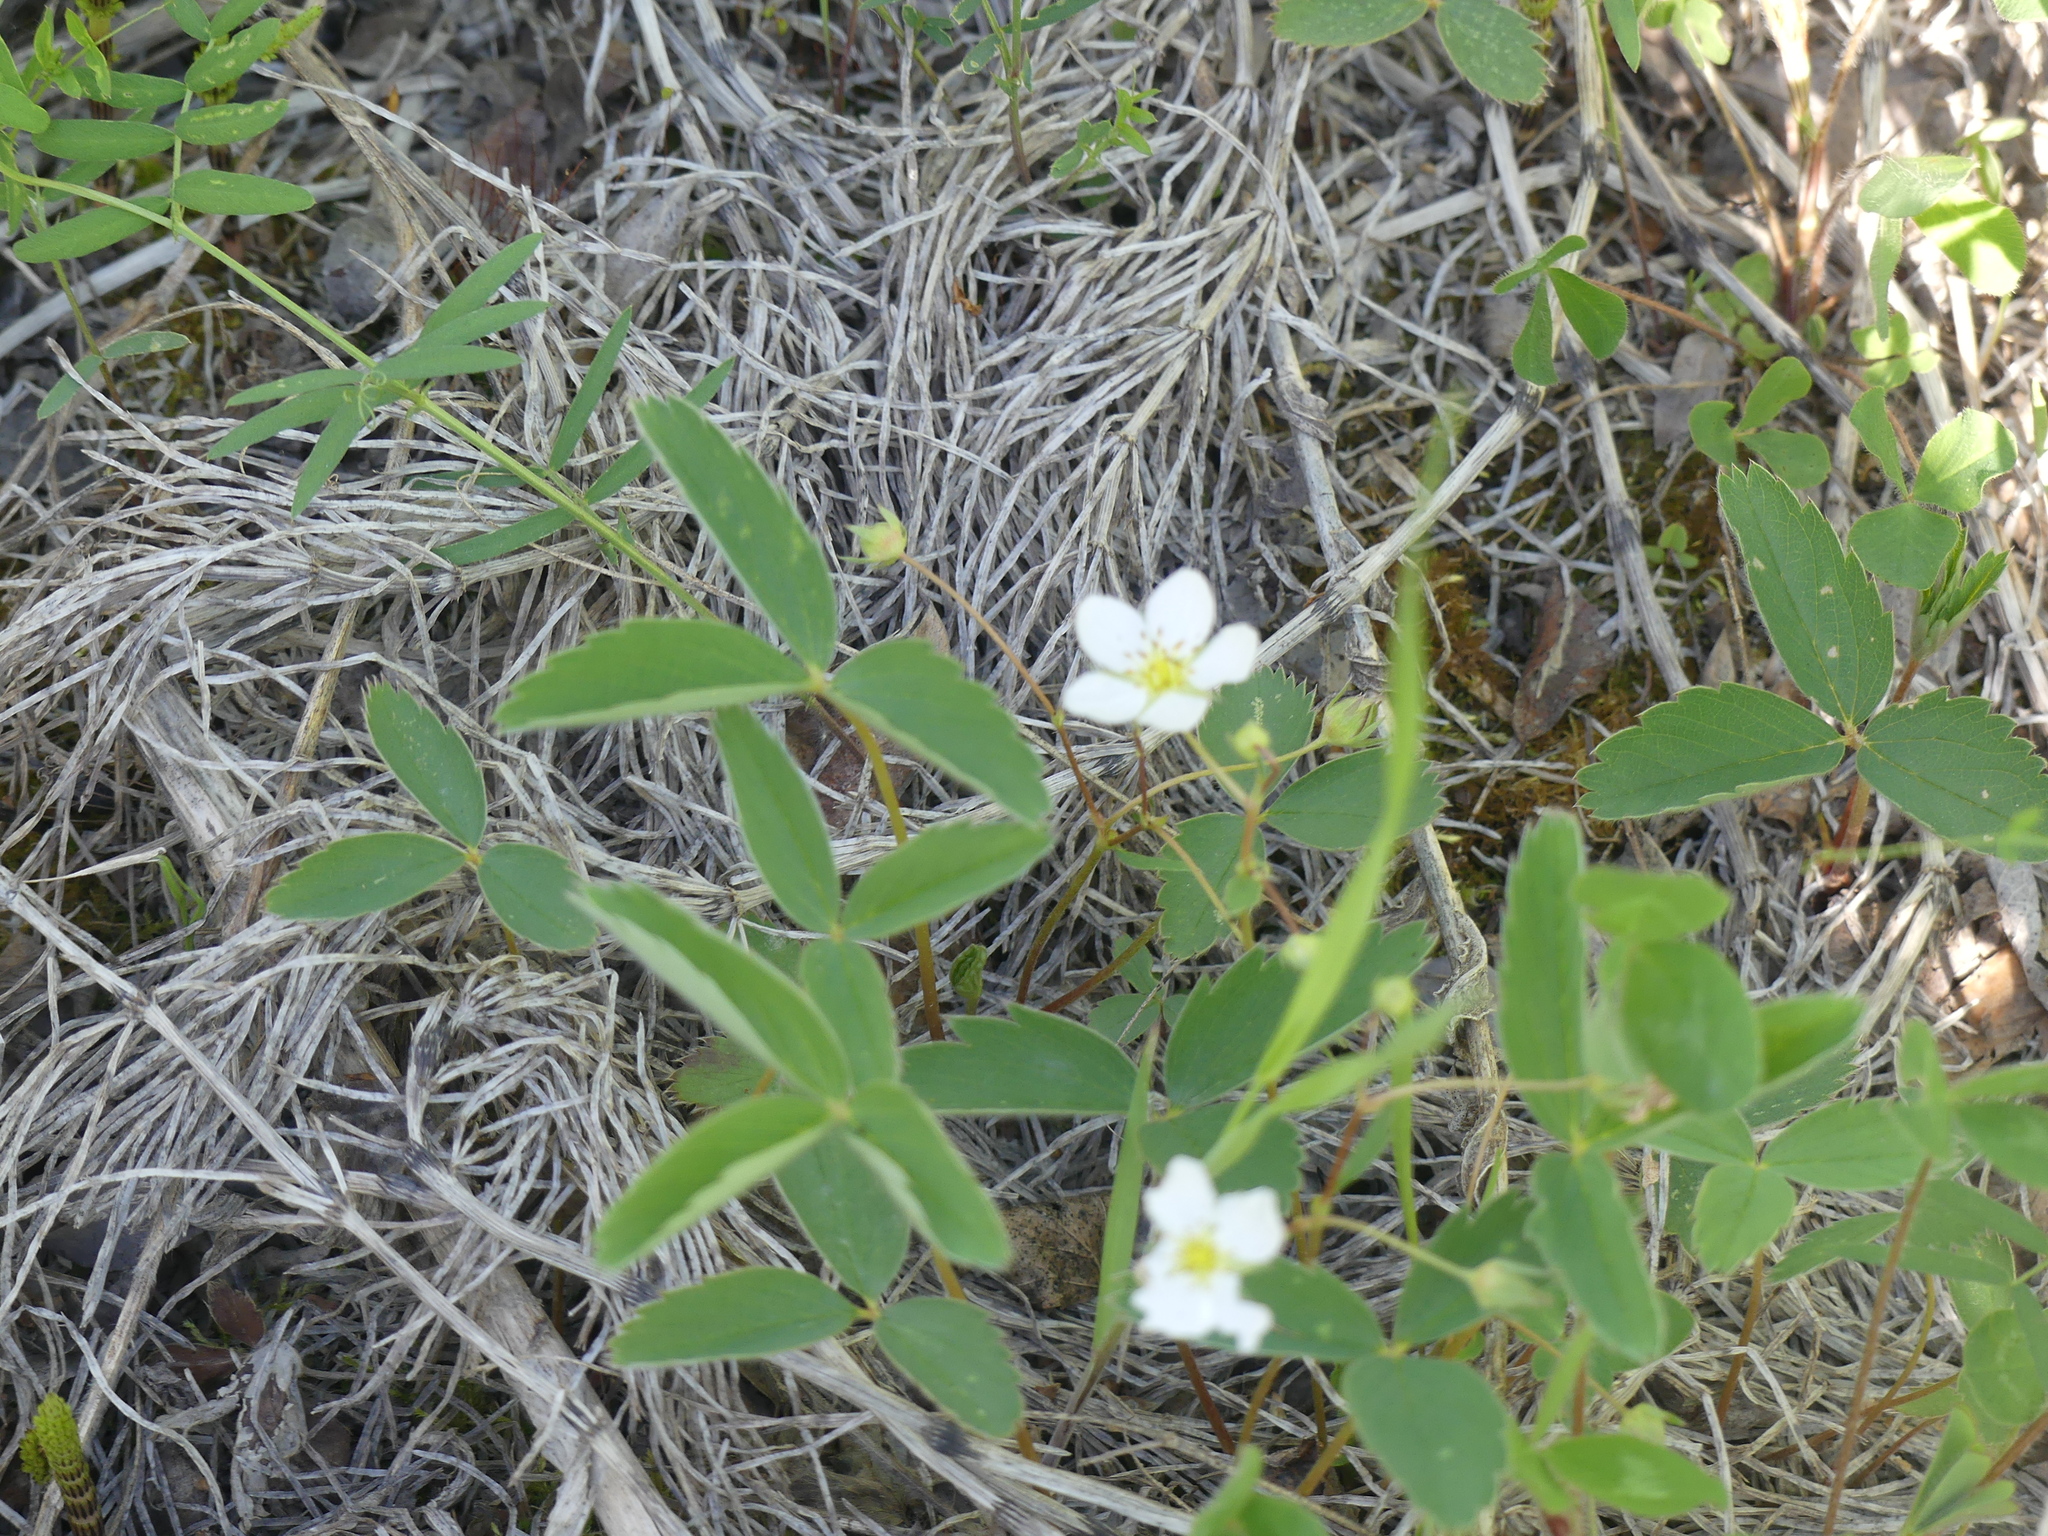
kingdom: Plantae
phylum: Tracheophyta
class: Magnoliopsida
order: Rosales
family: Rosaceae
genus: Fragaria
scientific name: Fragaria virginiana
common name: Thickleaved wild strawberry
